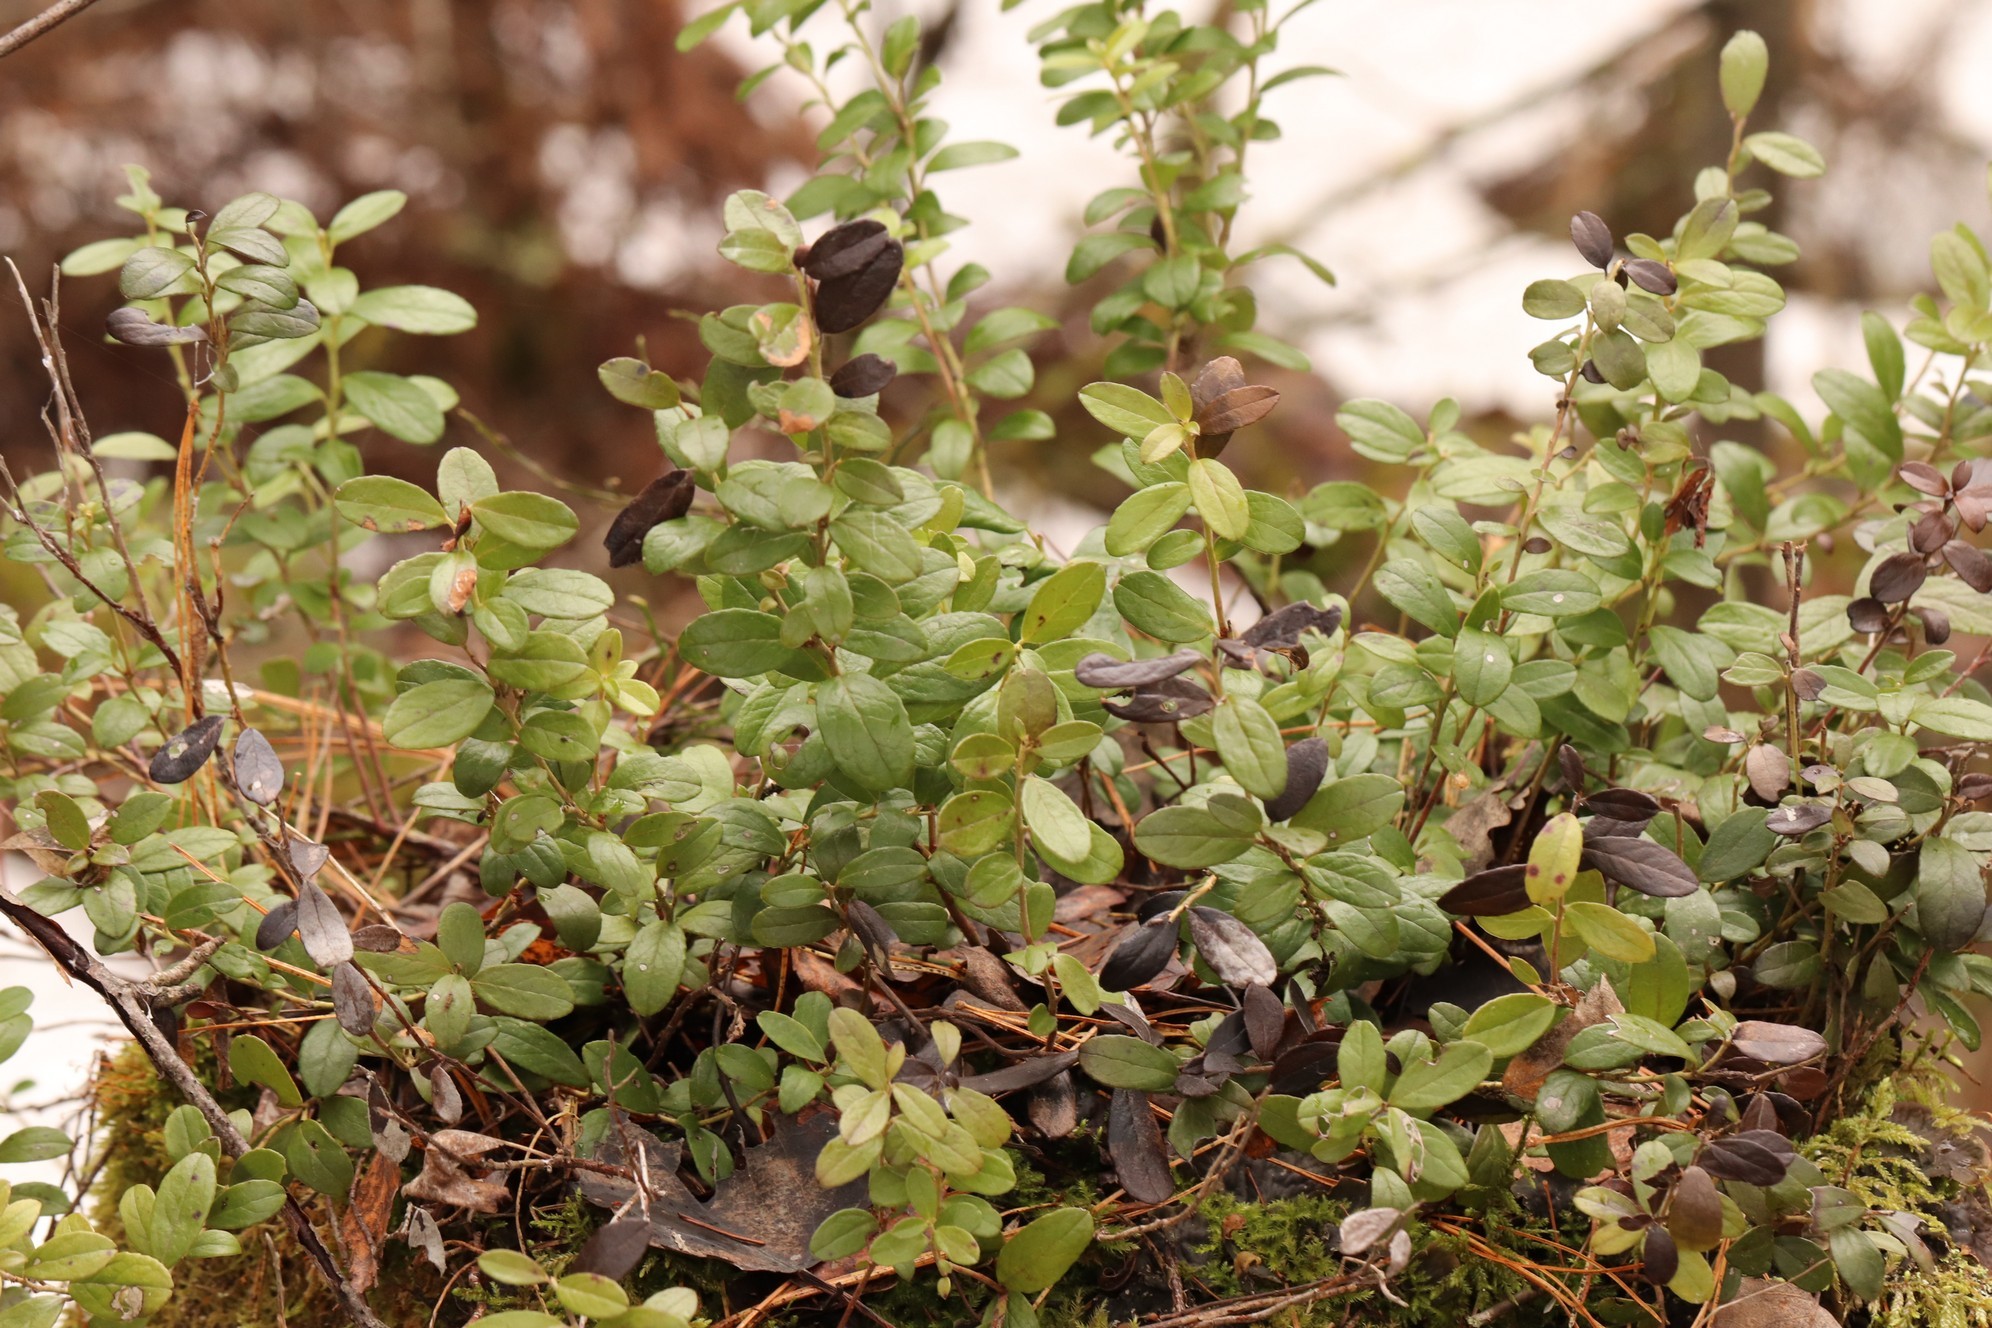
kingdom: Plantae
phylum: Tracheophyta
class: Magnoliopsida
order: Ericales
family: Ericaceae
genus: Vaccinium
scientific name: Vaccinium vitis-idaea
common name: Cowberry
